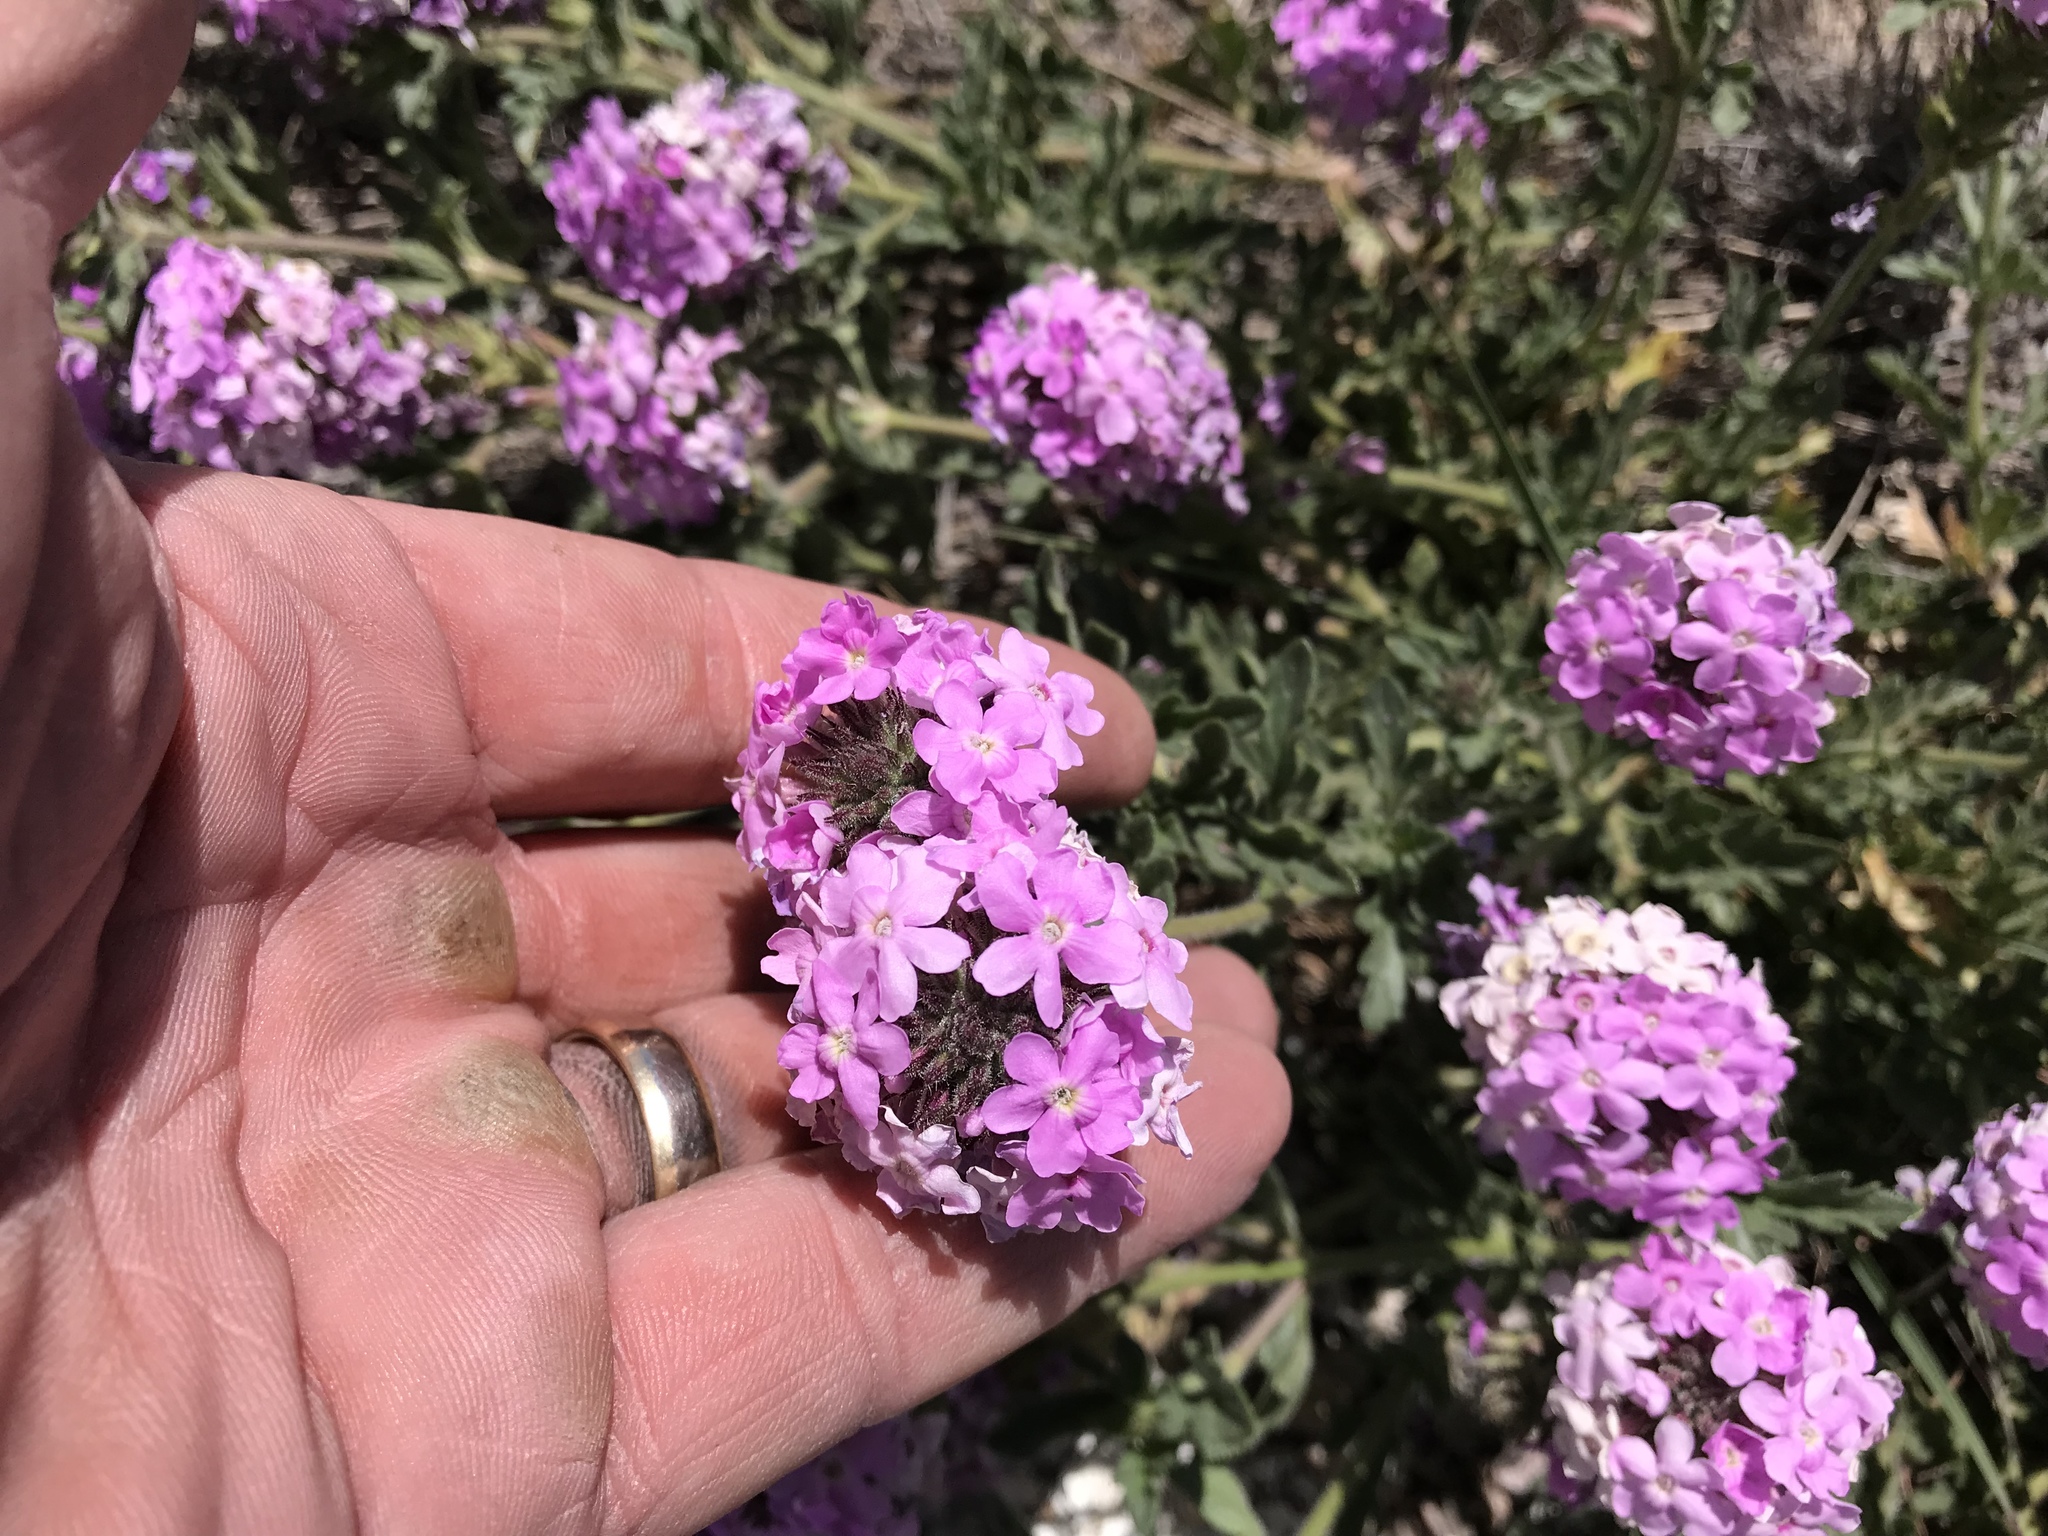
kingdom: Plantae
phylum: Tracheophyta
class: Magnoliopsida
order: Lamiales
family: Verbenaceae
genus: Verbena
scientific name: Verbena gooddingii
